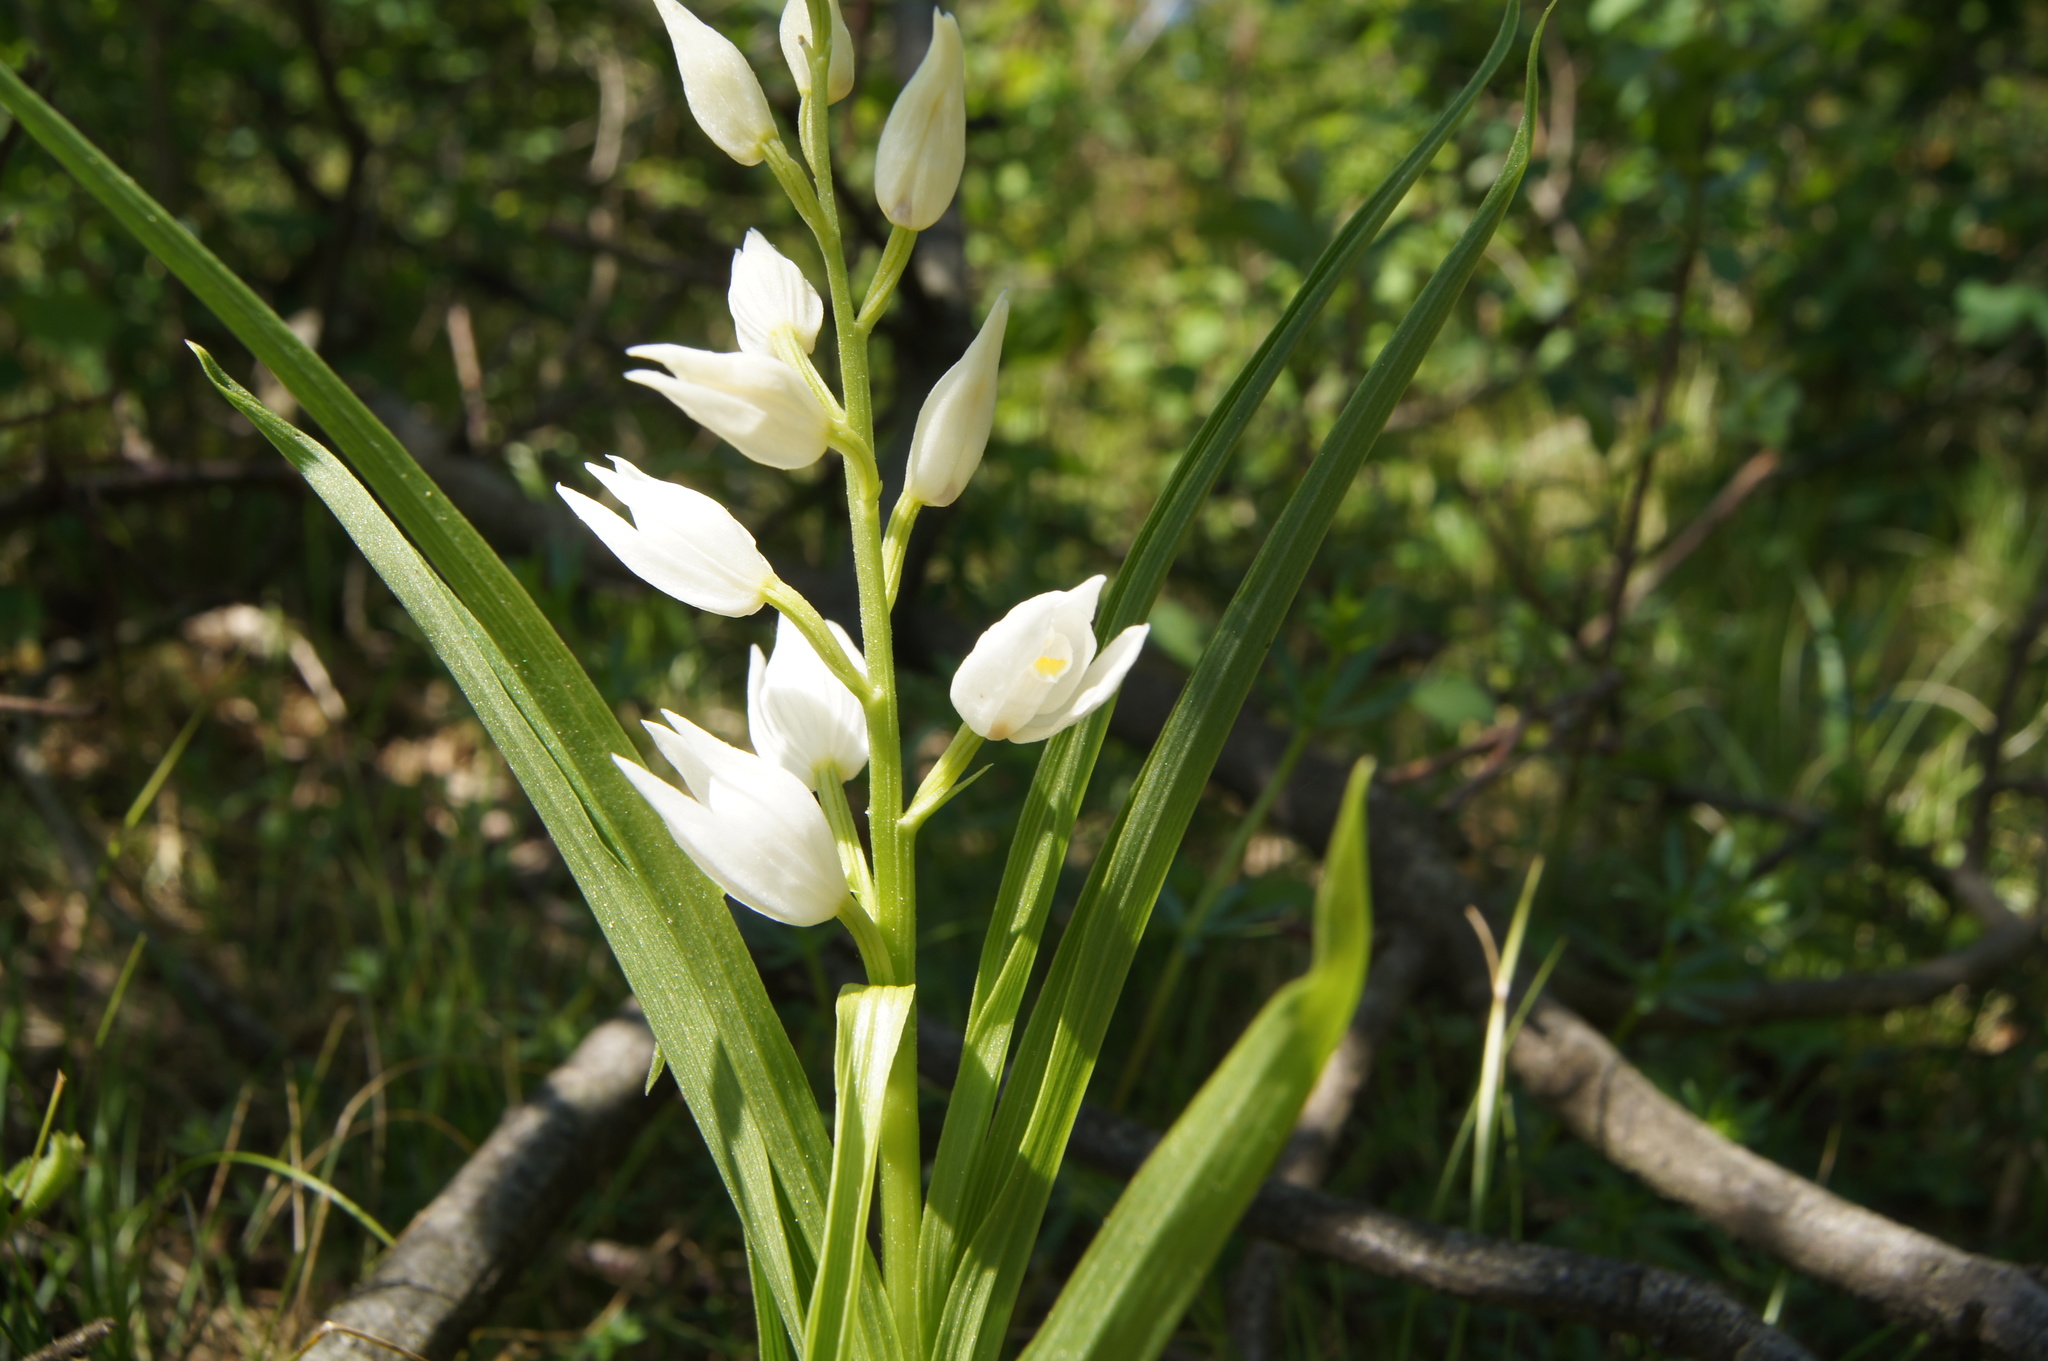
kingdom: Plantae
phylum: Tracheophyta
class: Liliopsida
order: Asparagales
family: Orchidaceae
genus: Cephalanthera
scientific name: Cephalanthera longifolia
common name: Narrow-leaved helleborine
